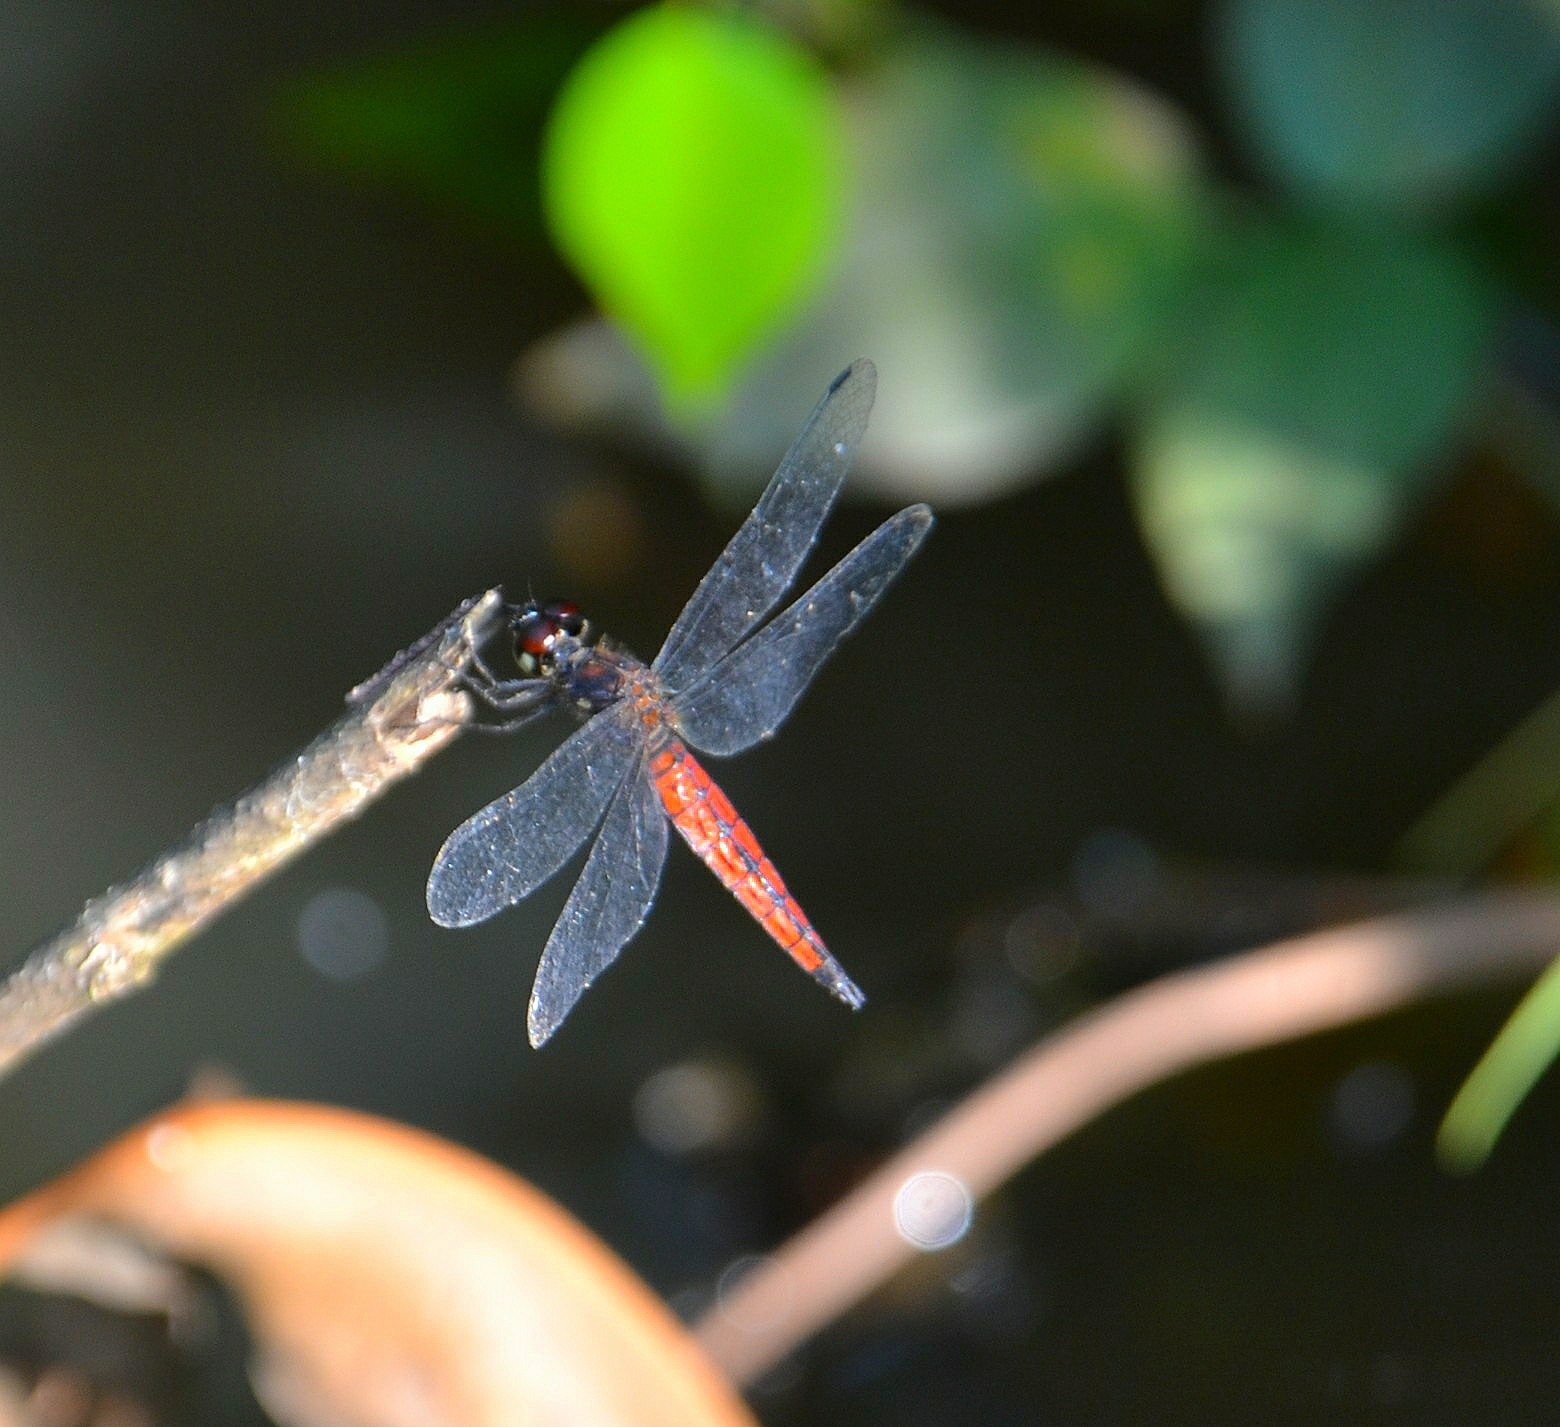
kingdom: Animalia
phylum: Arthropoda
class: Insecta
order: Odonata
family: Libellulidae
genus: Lyriothemis
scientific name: Lyriothemis acigastra
